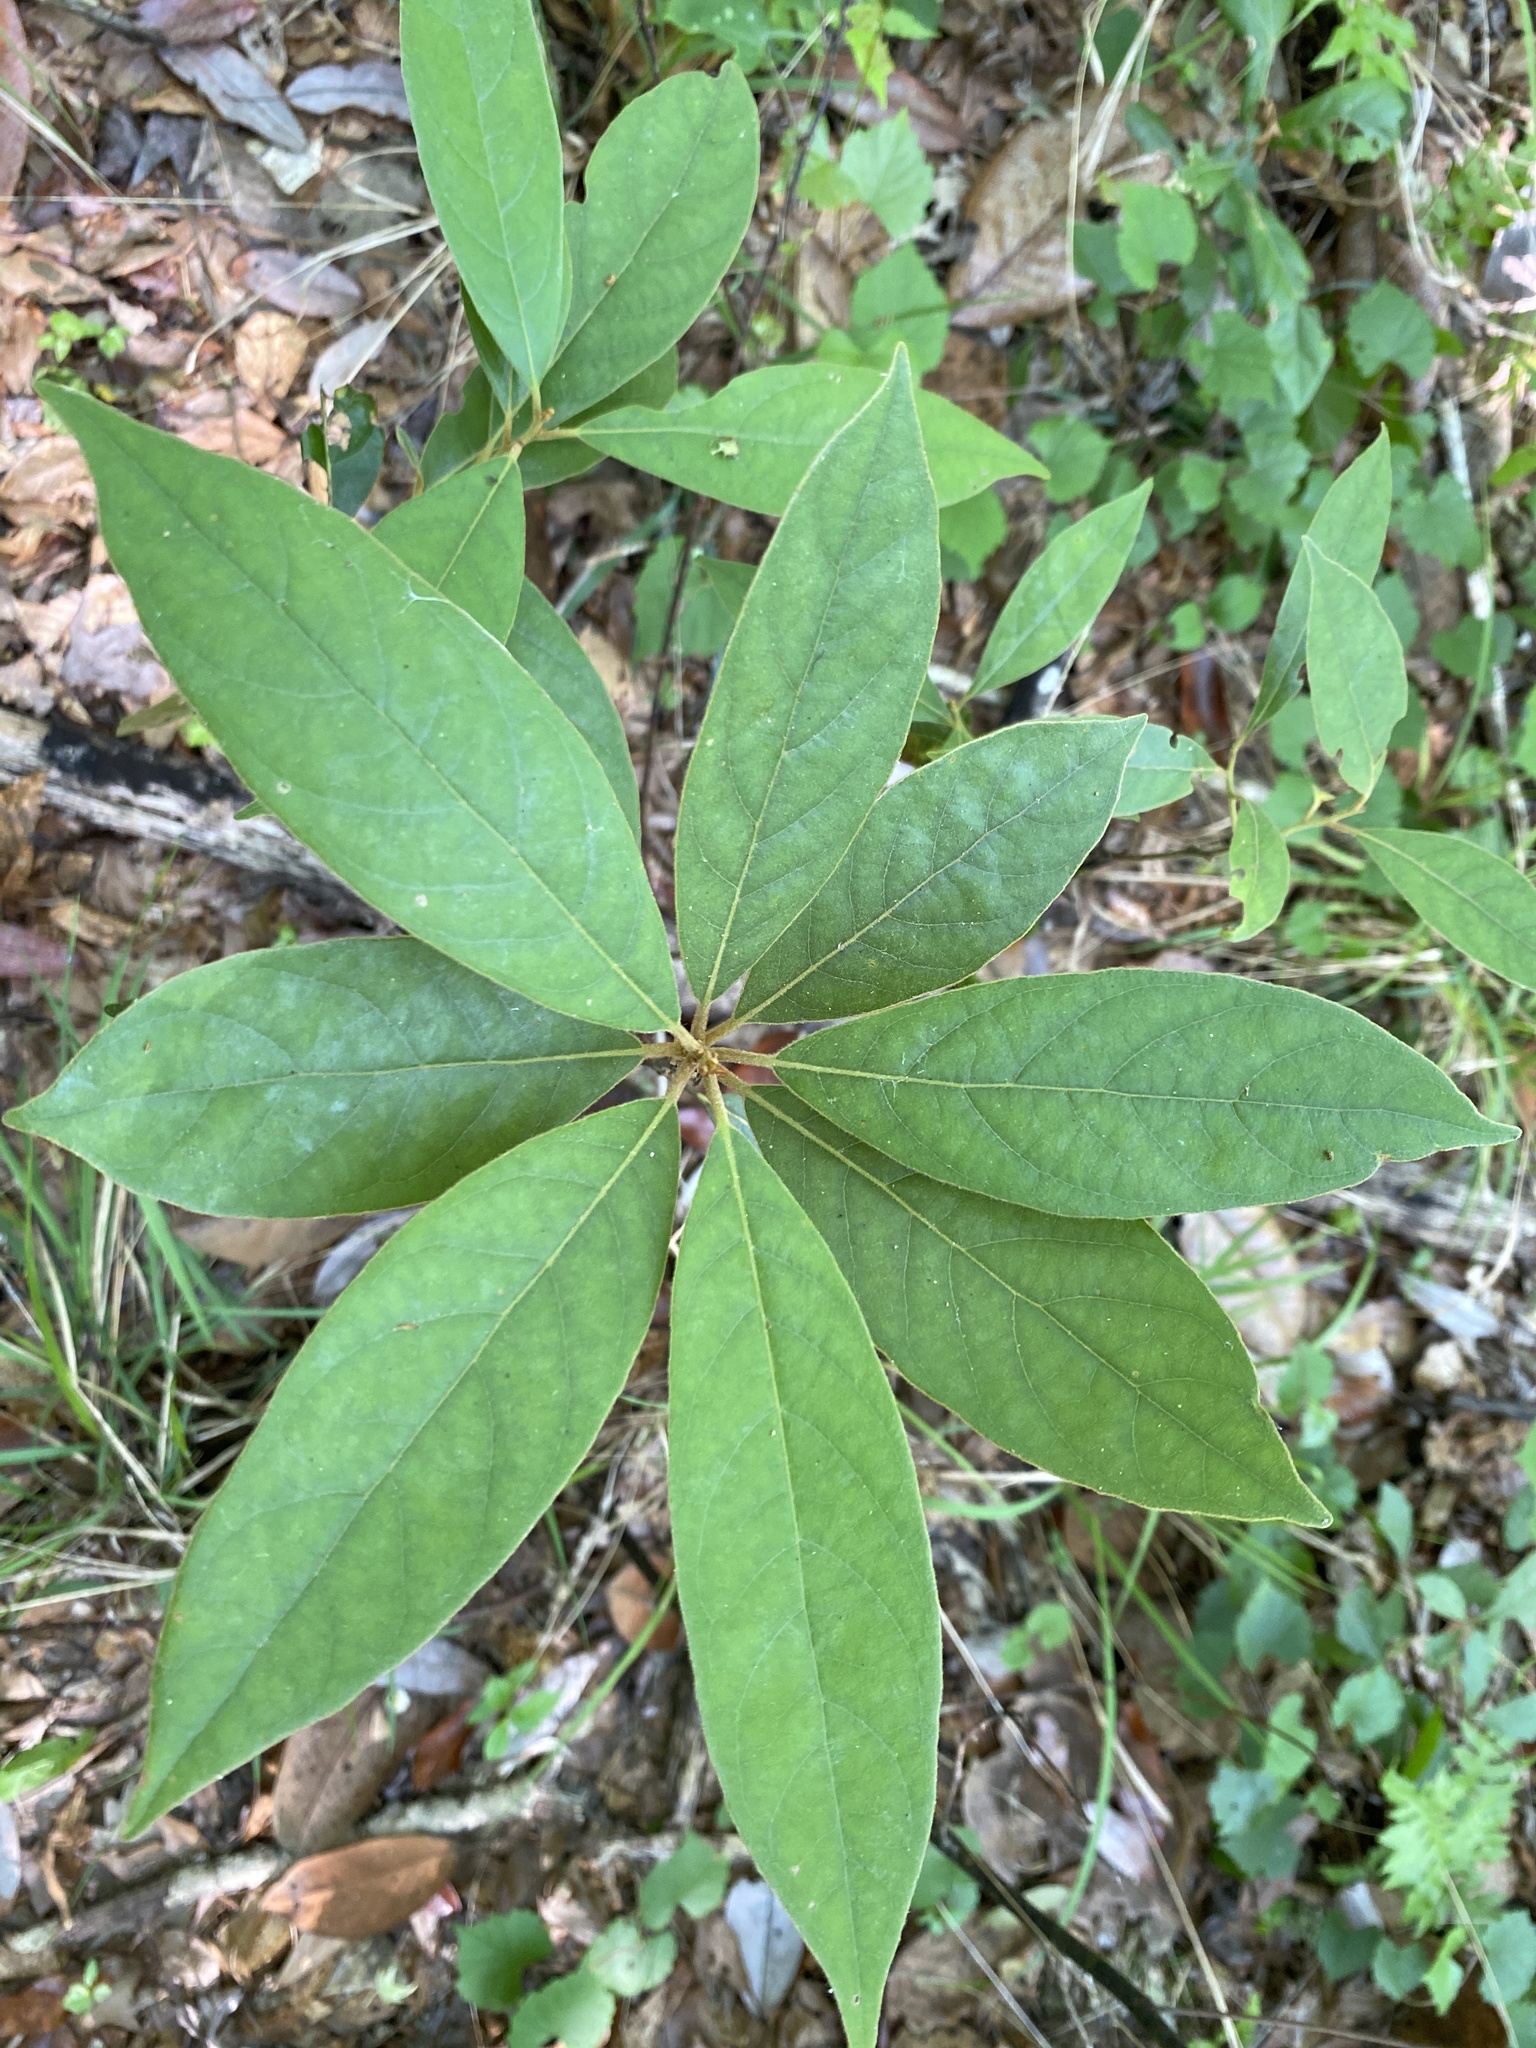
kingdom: Plantae
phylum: Tracheophyta
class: Magnoliopsida
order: Laurales
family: Lauraceae
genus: Persea
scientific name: Persea palustris
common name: Swampbay
